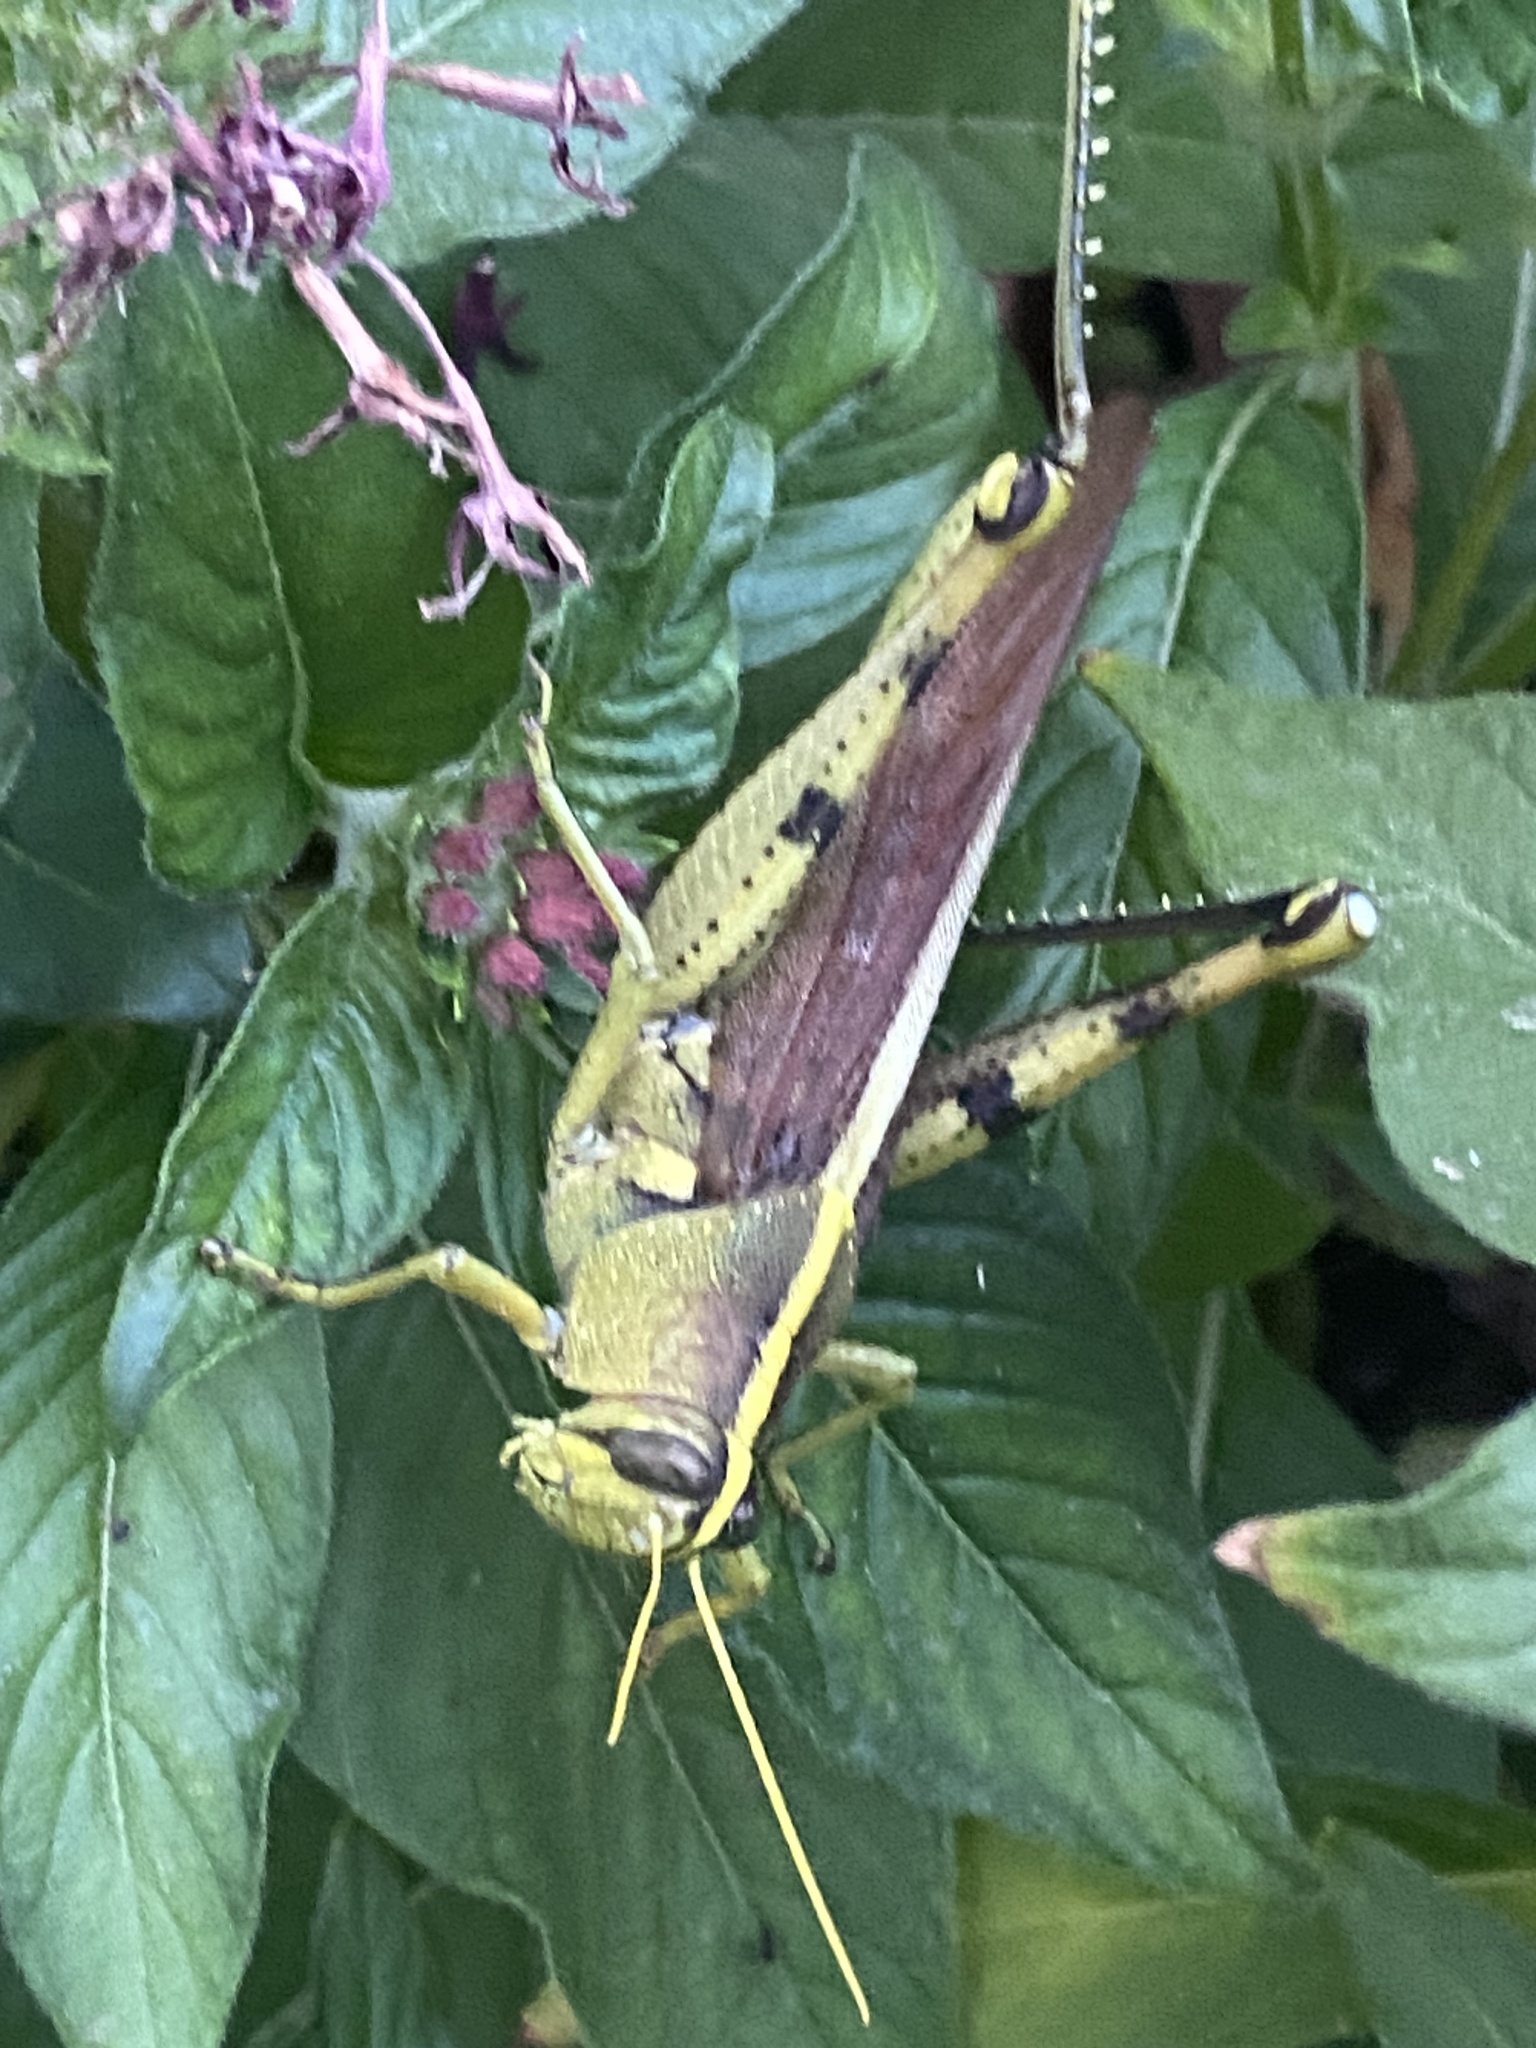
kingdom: Animalia
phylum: Arthropoda
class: Insecta
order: Orthoptera
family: Acrididae
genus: Schistocerca
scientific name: Schistocerca obscura
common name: Obscure bird grasshopper
